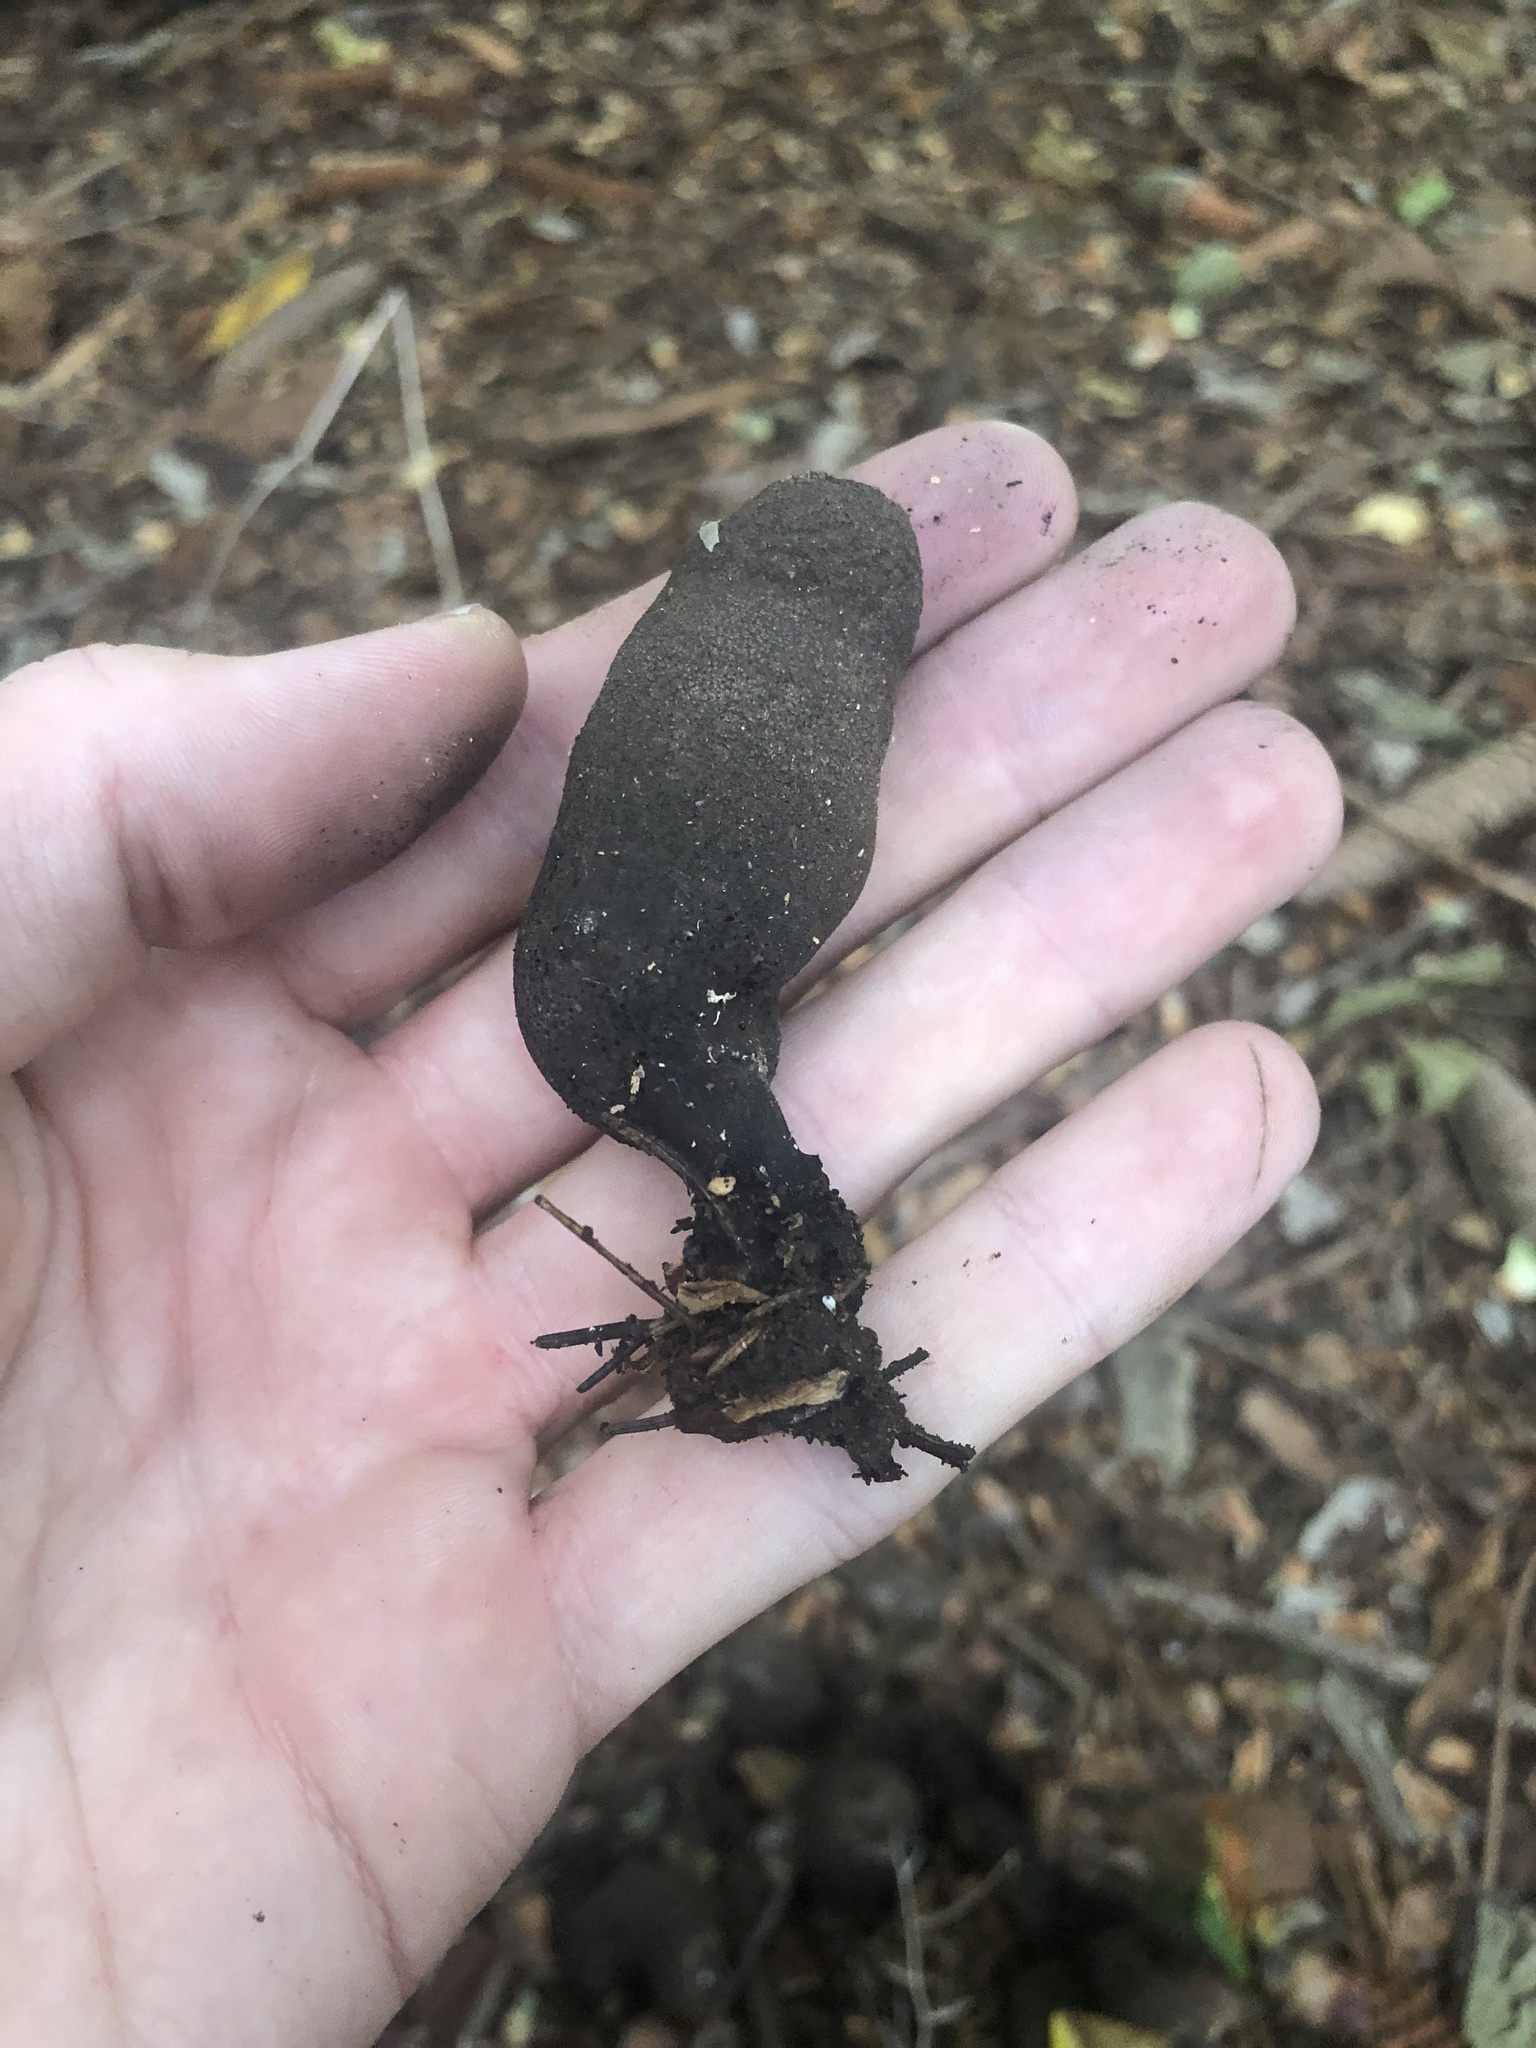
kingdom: Fungi
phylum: Ascomycota
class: Sordariomycetes
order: Xylariales
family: Xylariaceae
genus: Xylaria
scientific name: Xylaria polymorpha
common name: Dead man's fingers
